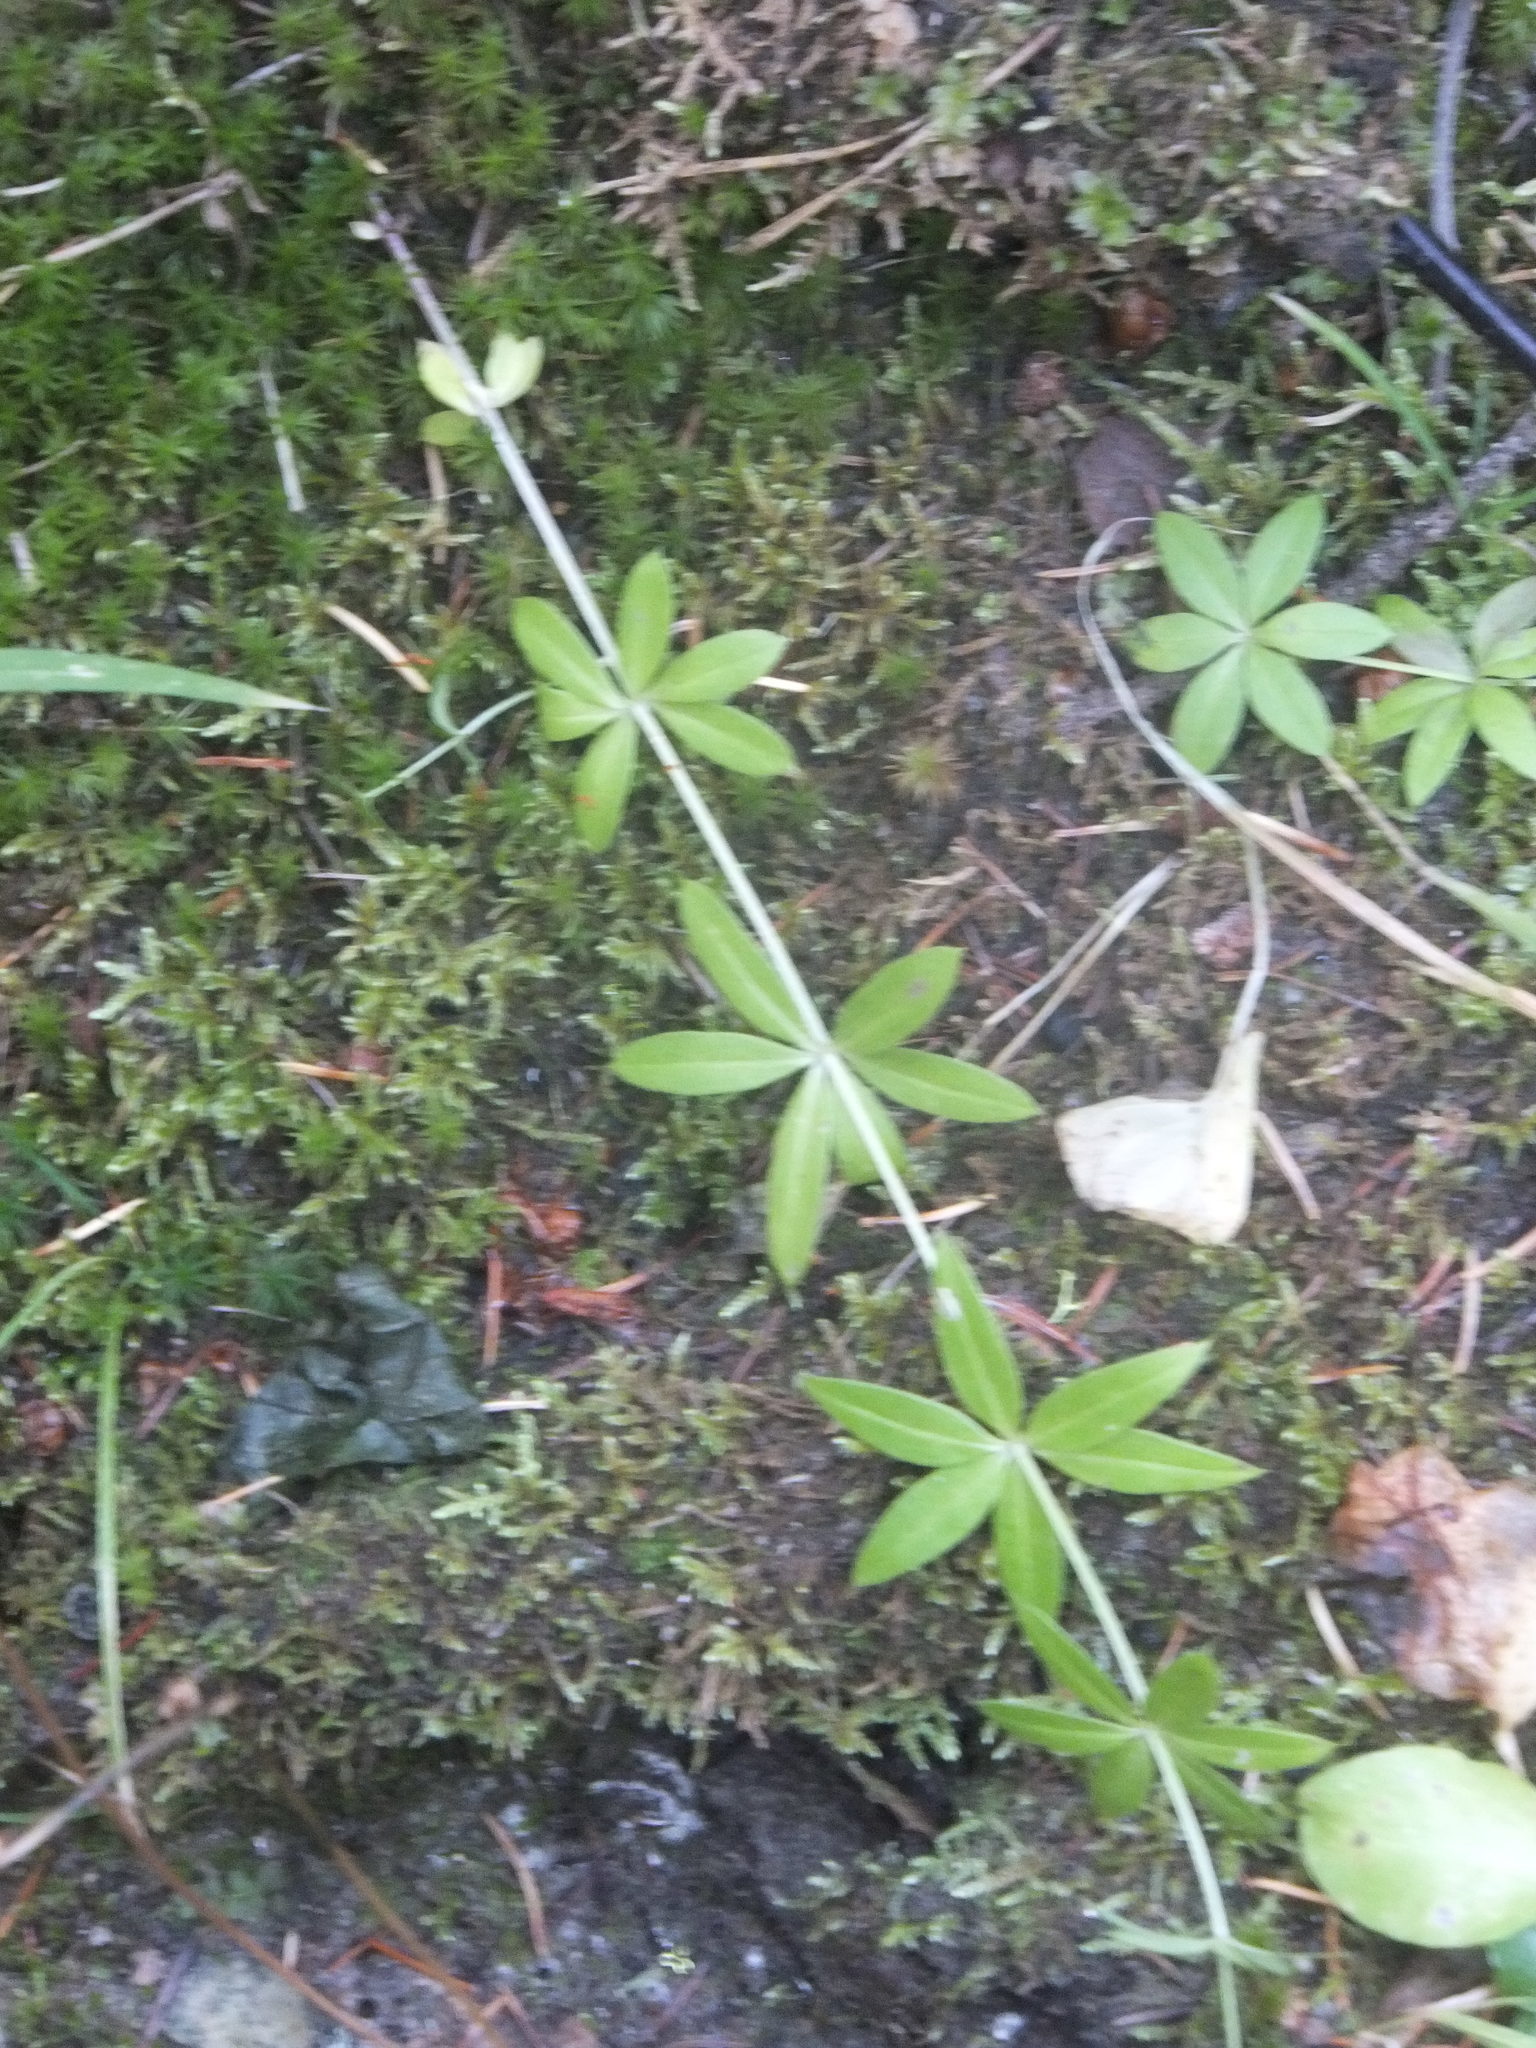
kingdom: Plantae
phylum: Tracheophyta
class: Magnoliopsida
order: Gentianales
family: Rubiaceae
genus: Galium
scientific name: Galium triflorum
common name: Fragrant bedstraw
